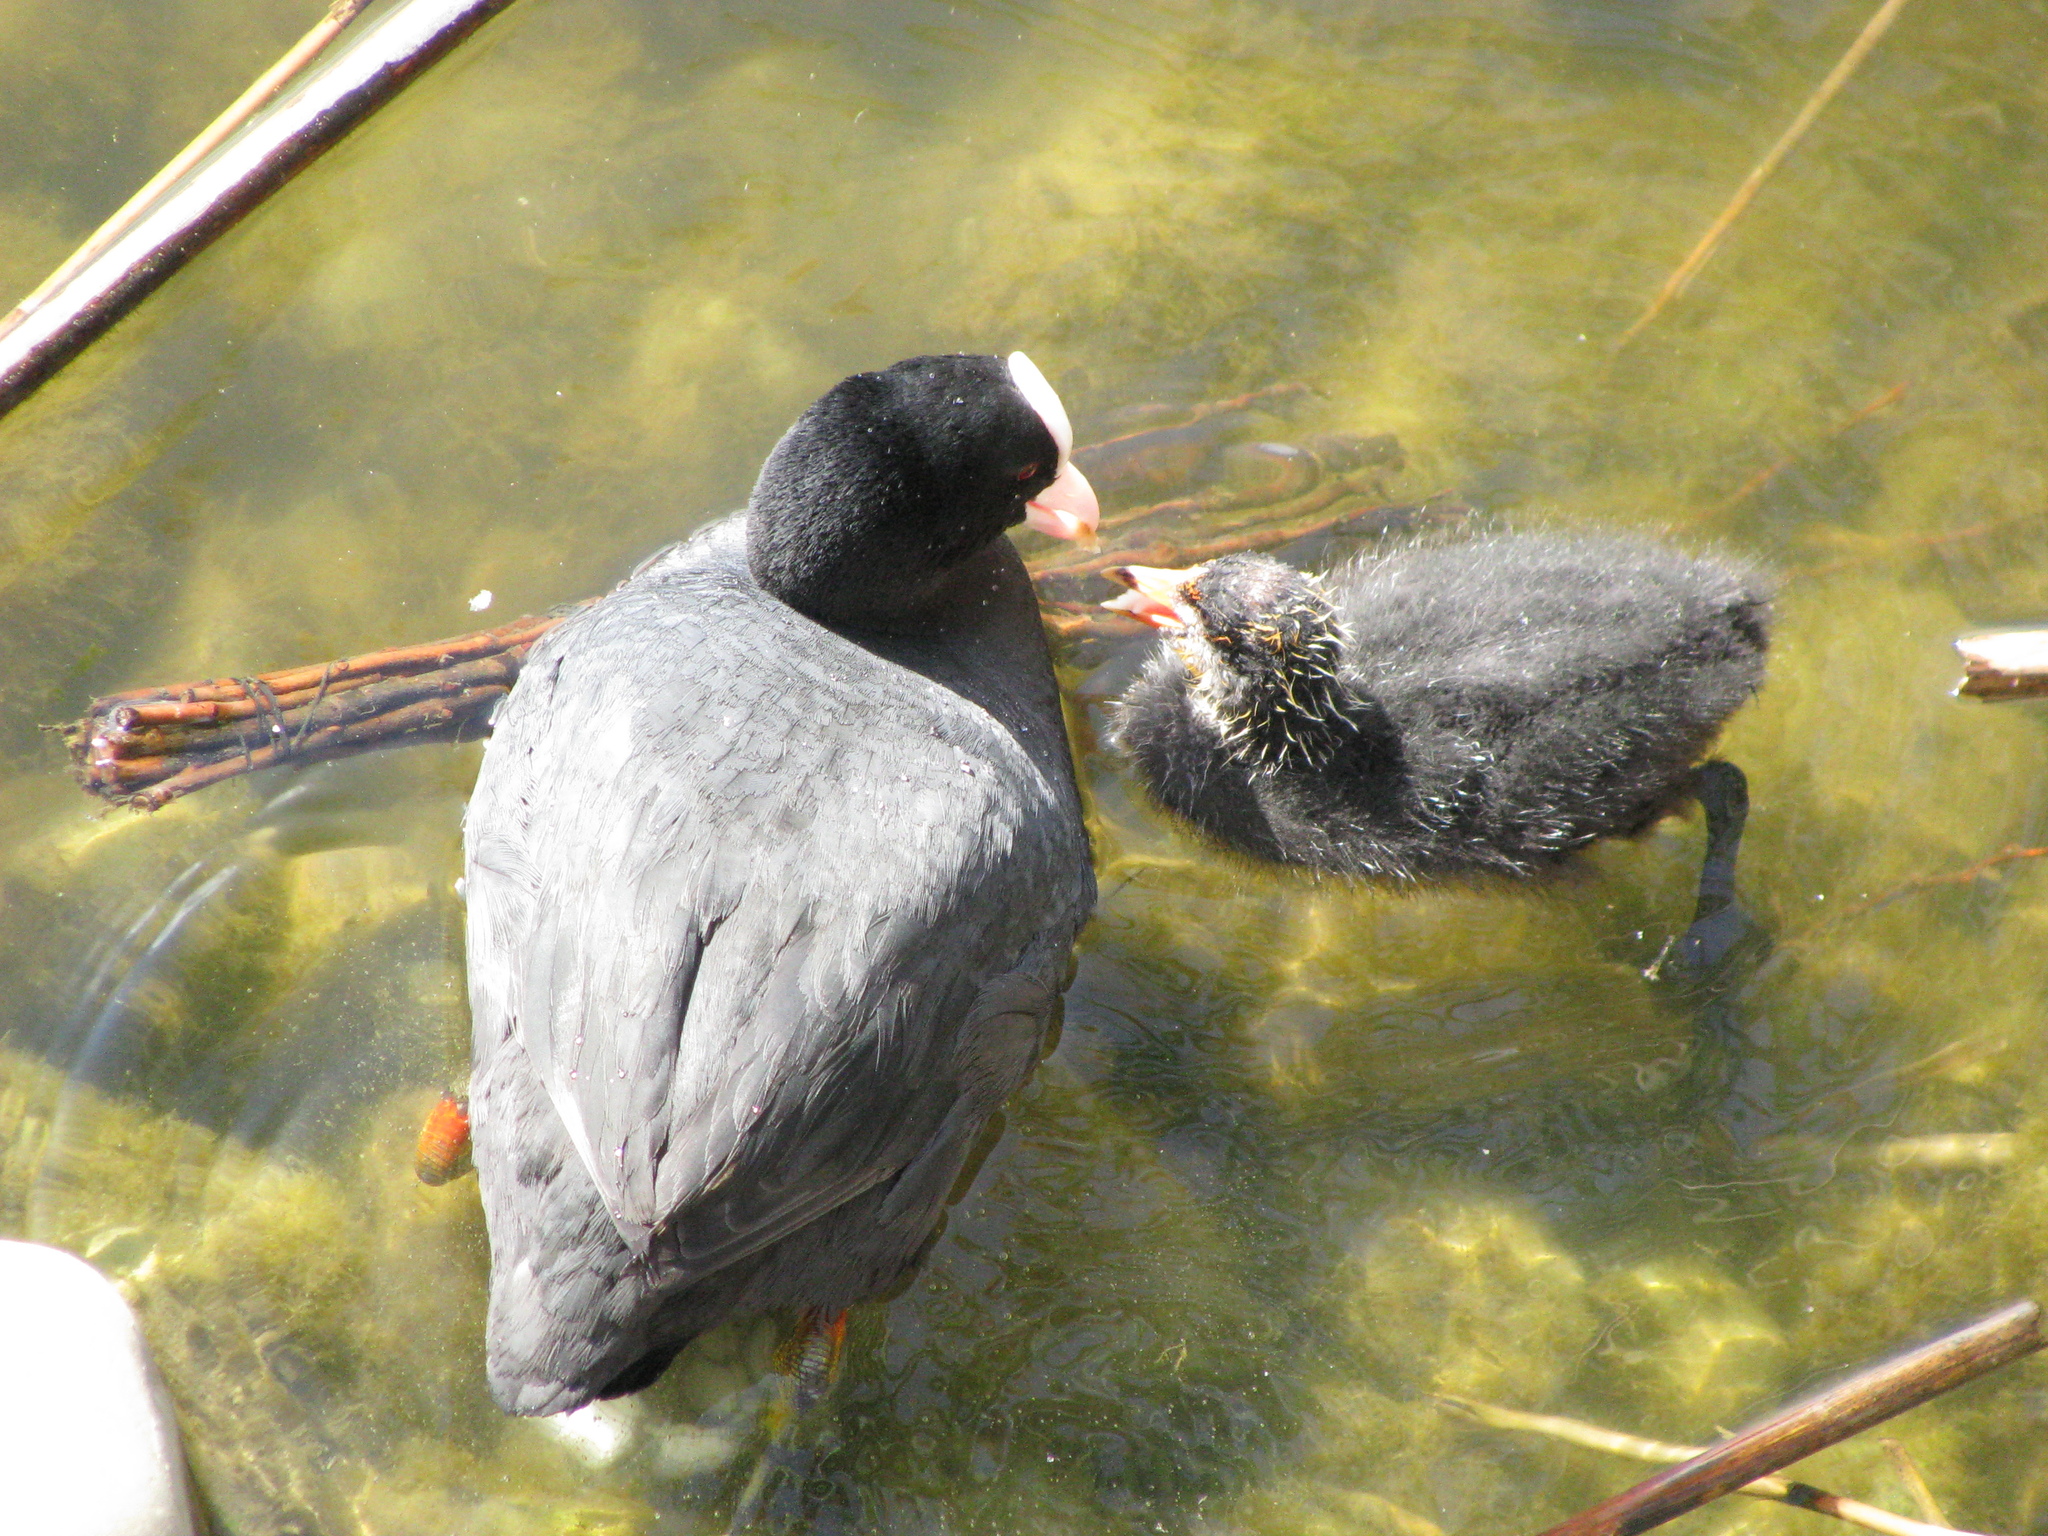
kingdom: Animalia
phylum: Chordata
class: Aves
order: Gruiformes
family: Rallidae
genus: Fulica
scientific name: Fulica atra
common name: Eurasian coot
